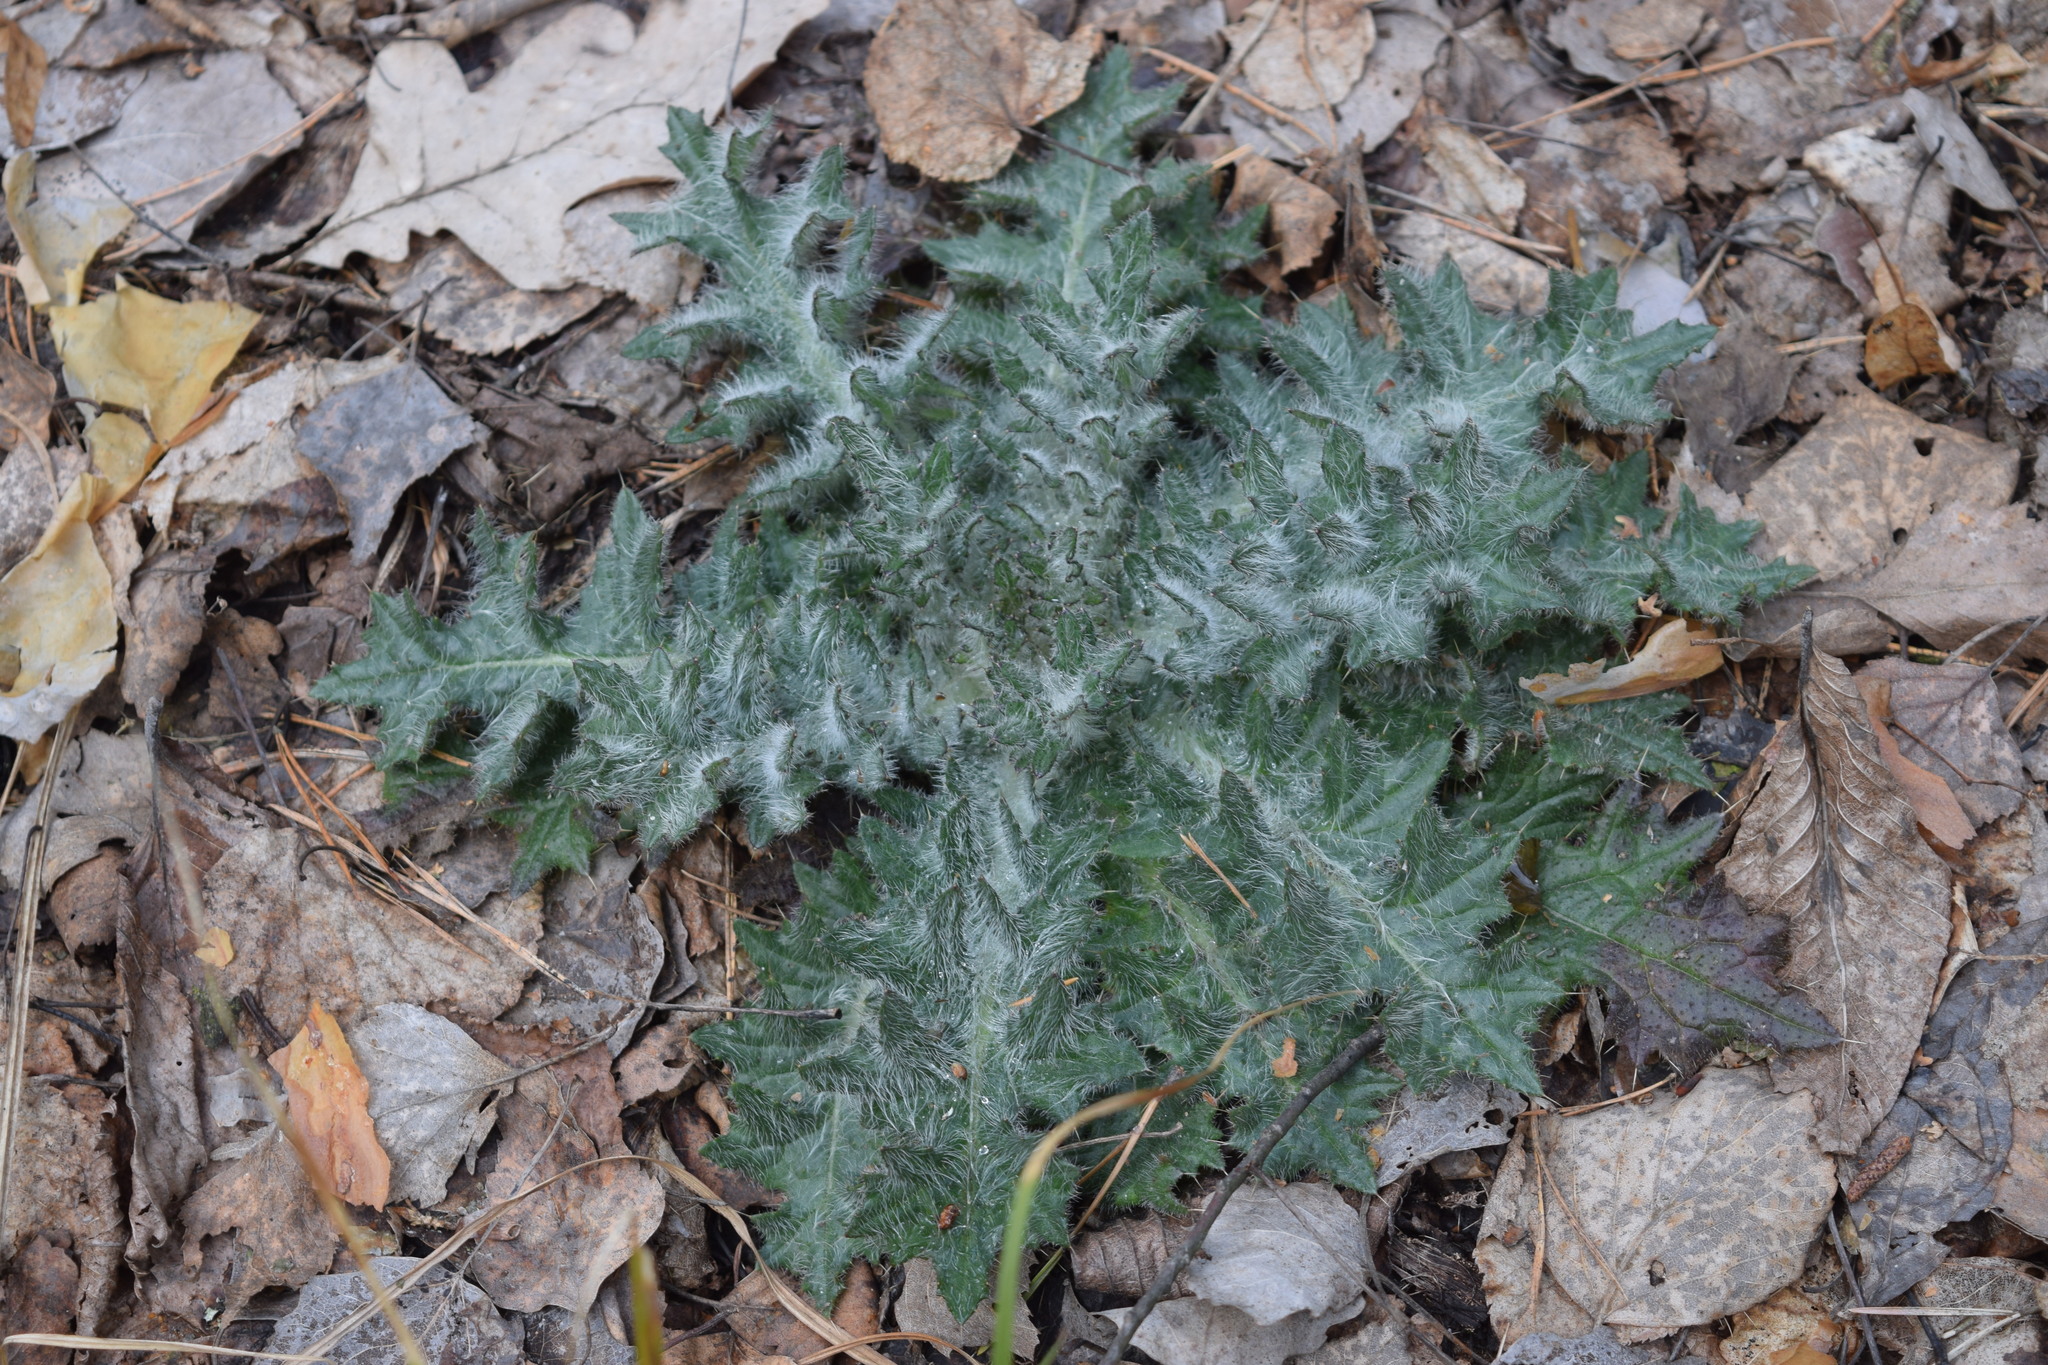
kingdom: Plantae
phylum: Tracheophyta
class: Magnoliopsida
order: Asterales
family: Asteraceae
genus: Cirsium
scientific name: Cirsium vulgare
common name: Bull thistle
